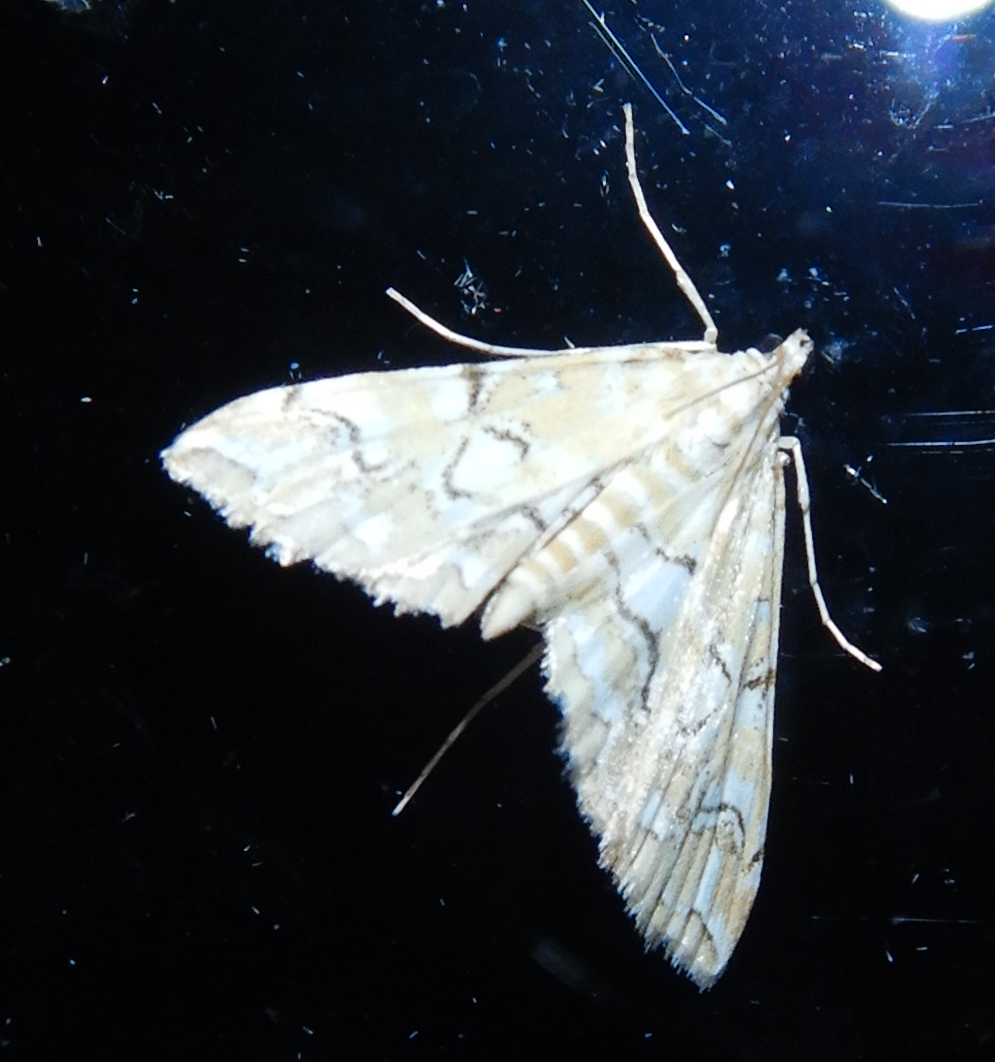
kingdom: Animalia
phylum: Arthropoda
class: Insecta
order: Lepidoptera
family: Crambidae
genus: Elophila
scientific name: Elophila icciusalis
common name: Pondside pyralid moth
